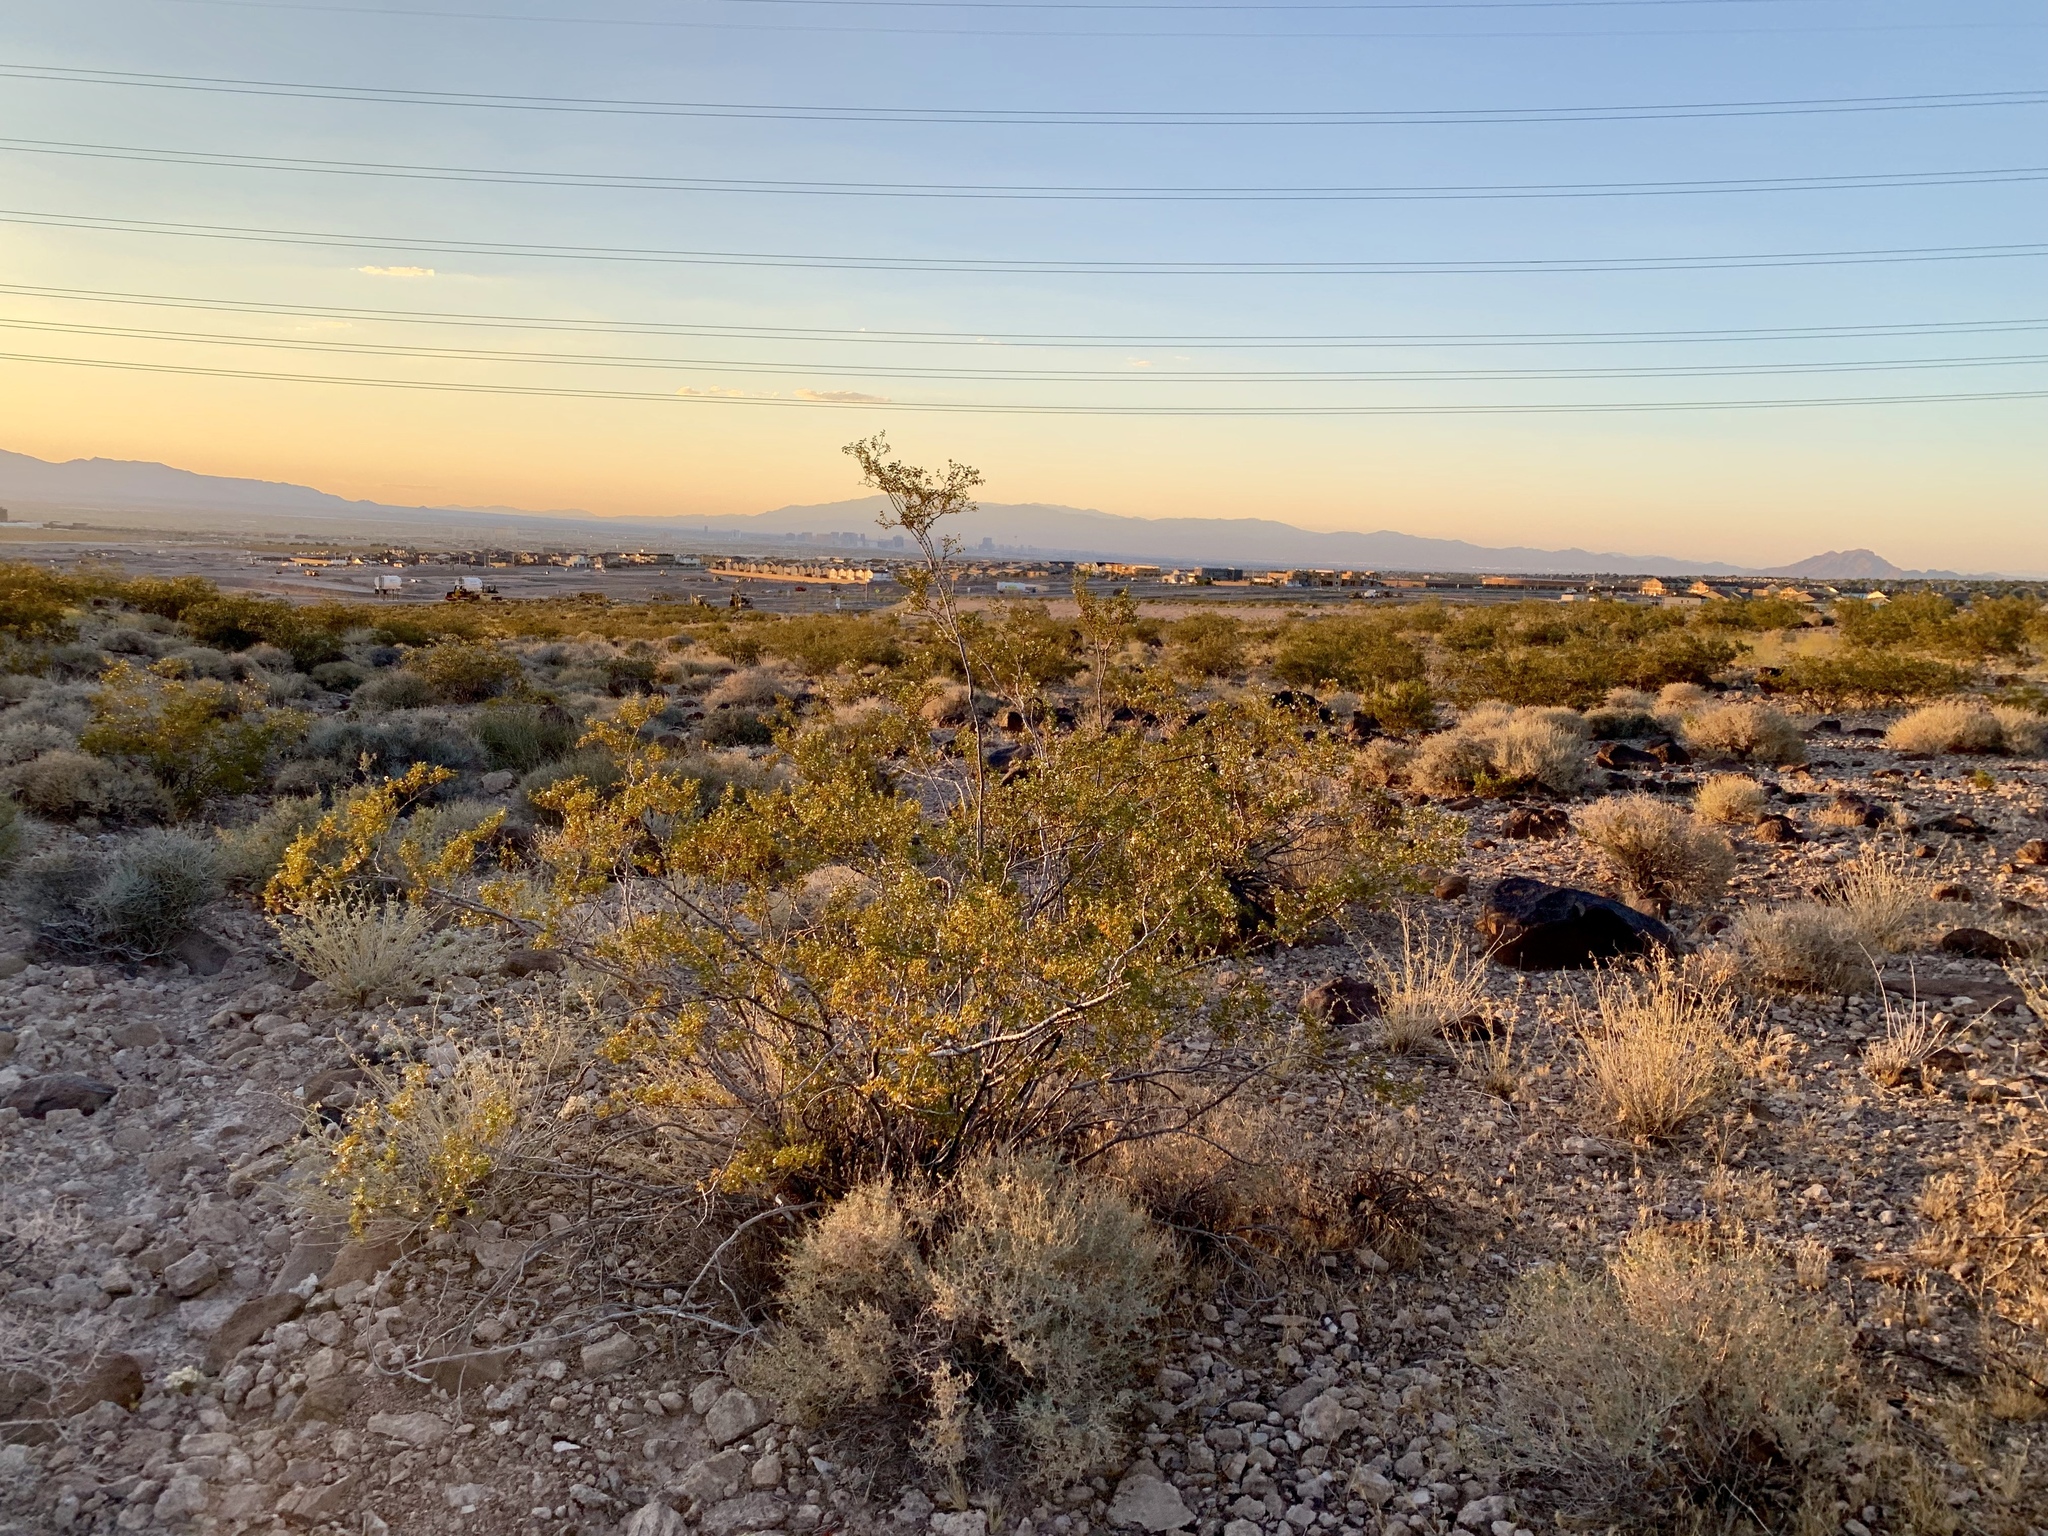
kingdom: Plantae
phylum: Tracheophyta
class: Magnoliopsida
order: Zygophyllales
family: Zygophyllaceae
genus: Larrea
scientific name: Larrea tridentata
